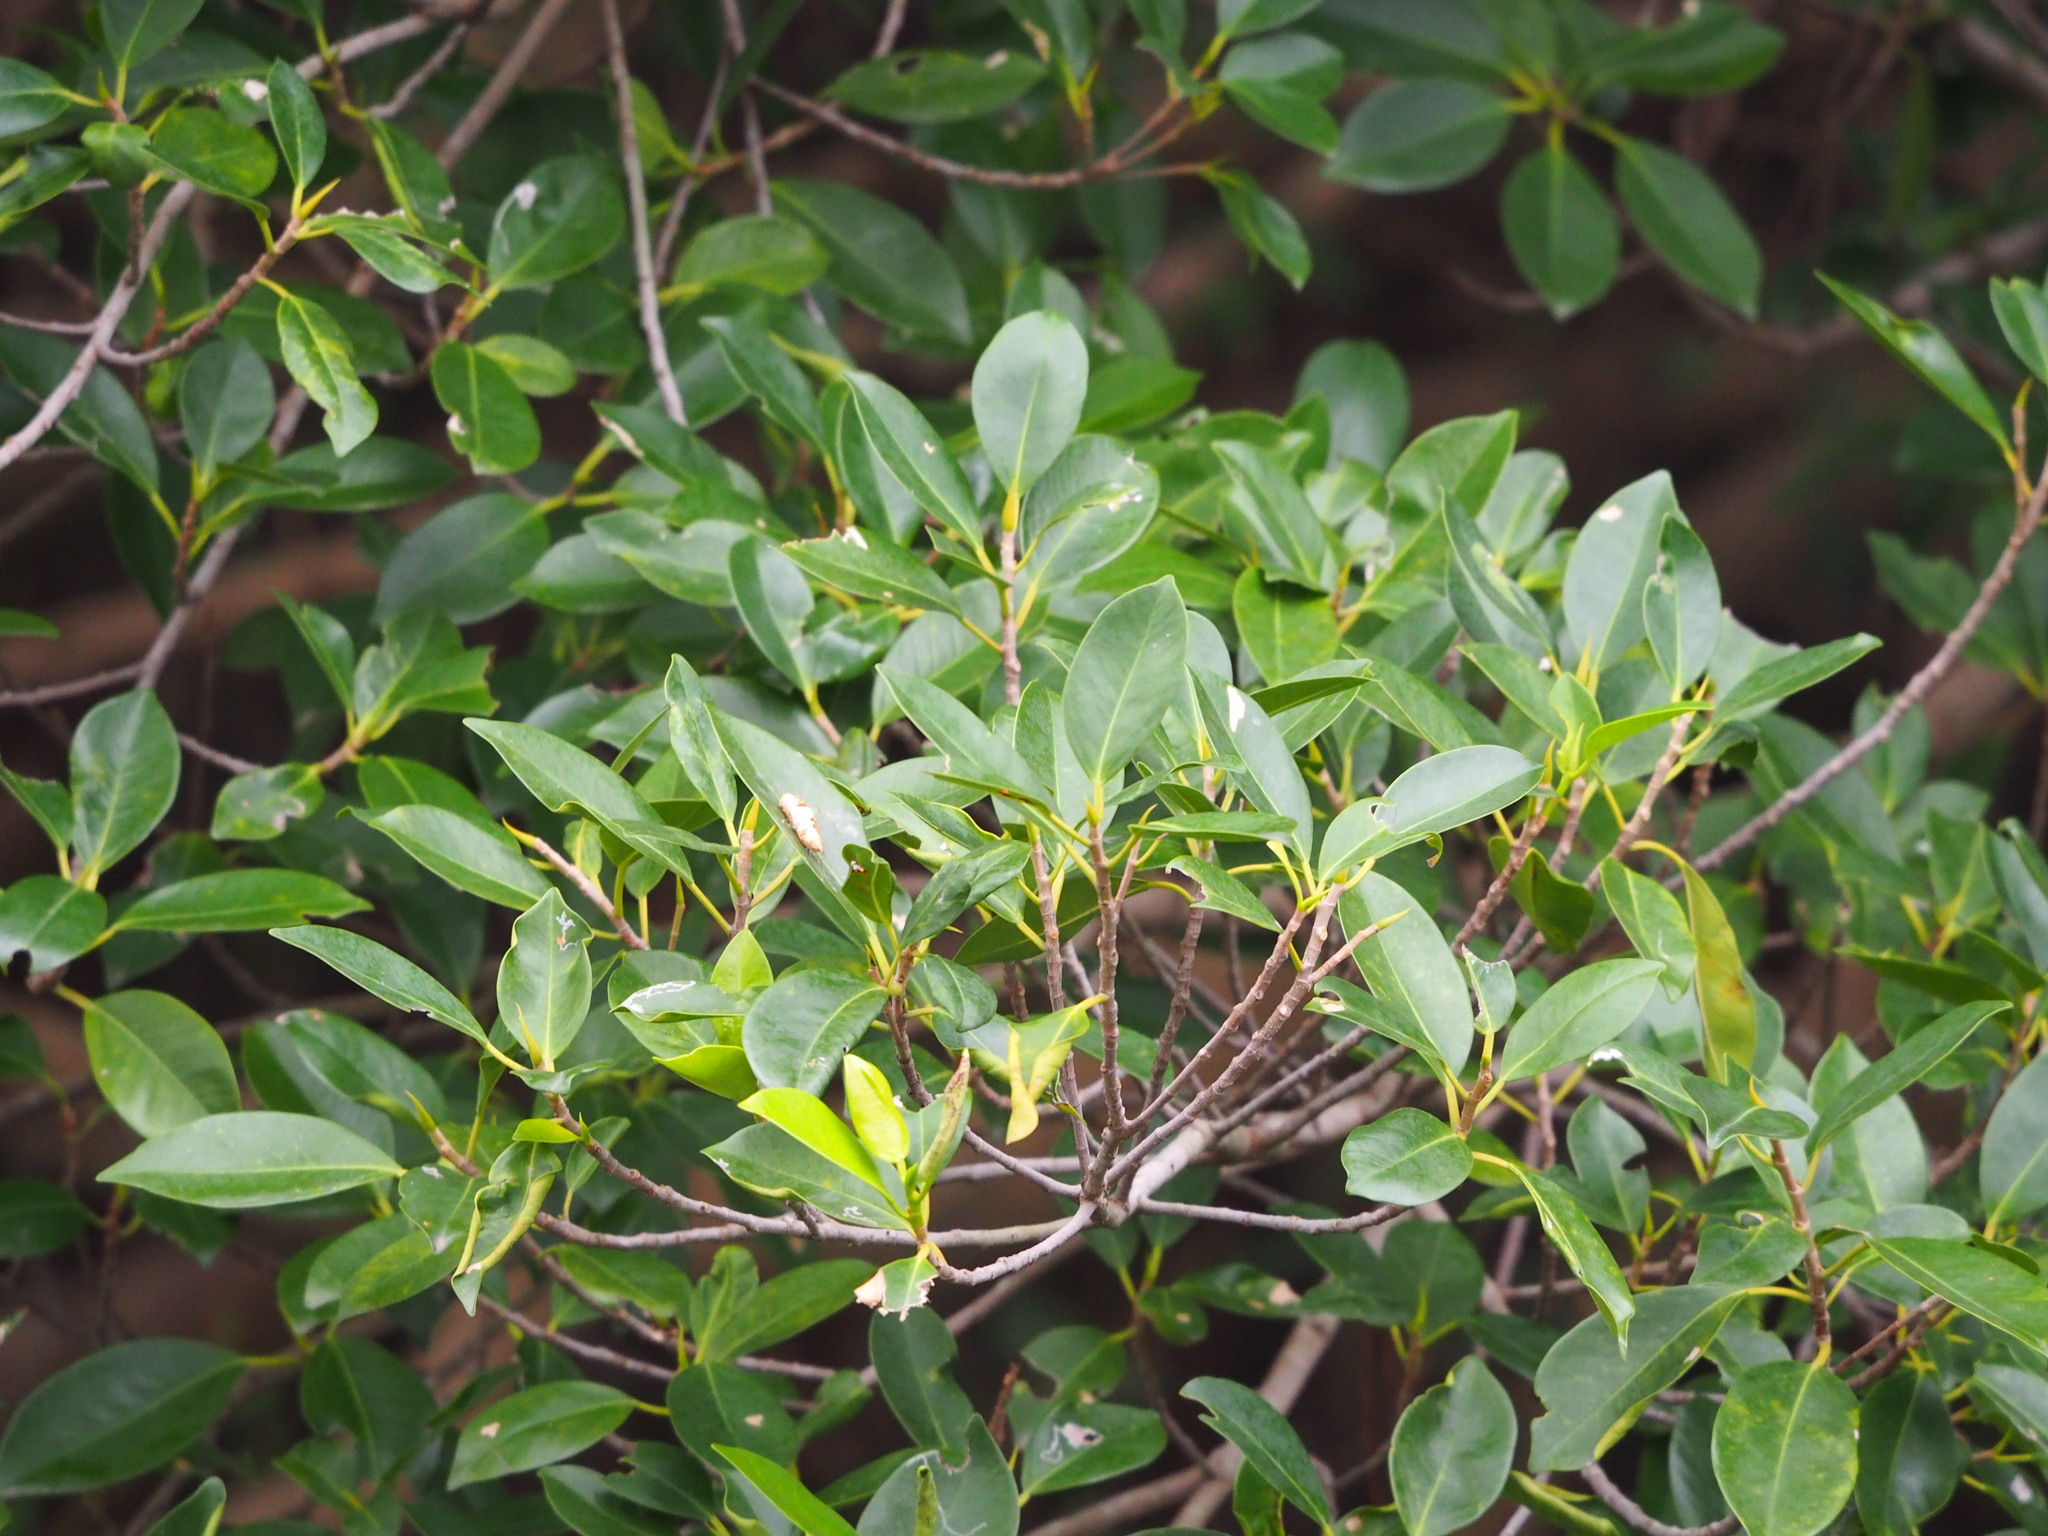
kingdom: Plantae
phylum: Tracheophyta
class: Magnoliopsida
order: Rosales
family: Moraceae
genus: Ficus
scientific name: Ficus microcarpa
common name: Chinese banyan
